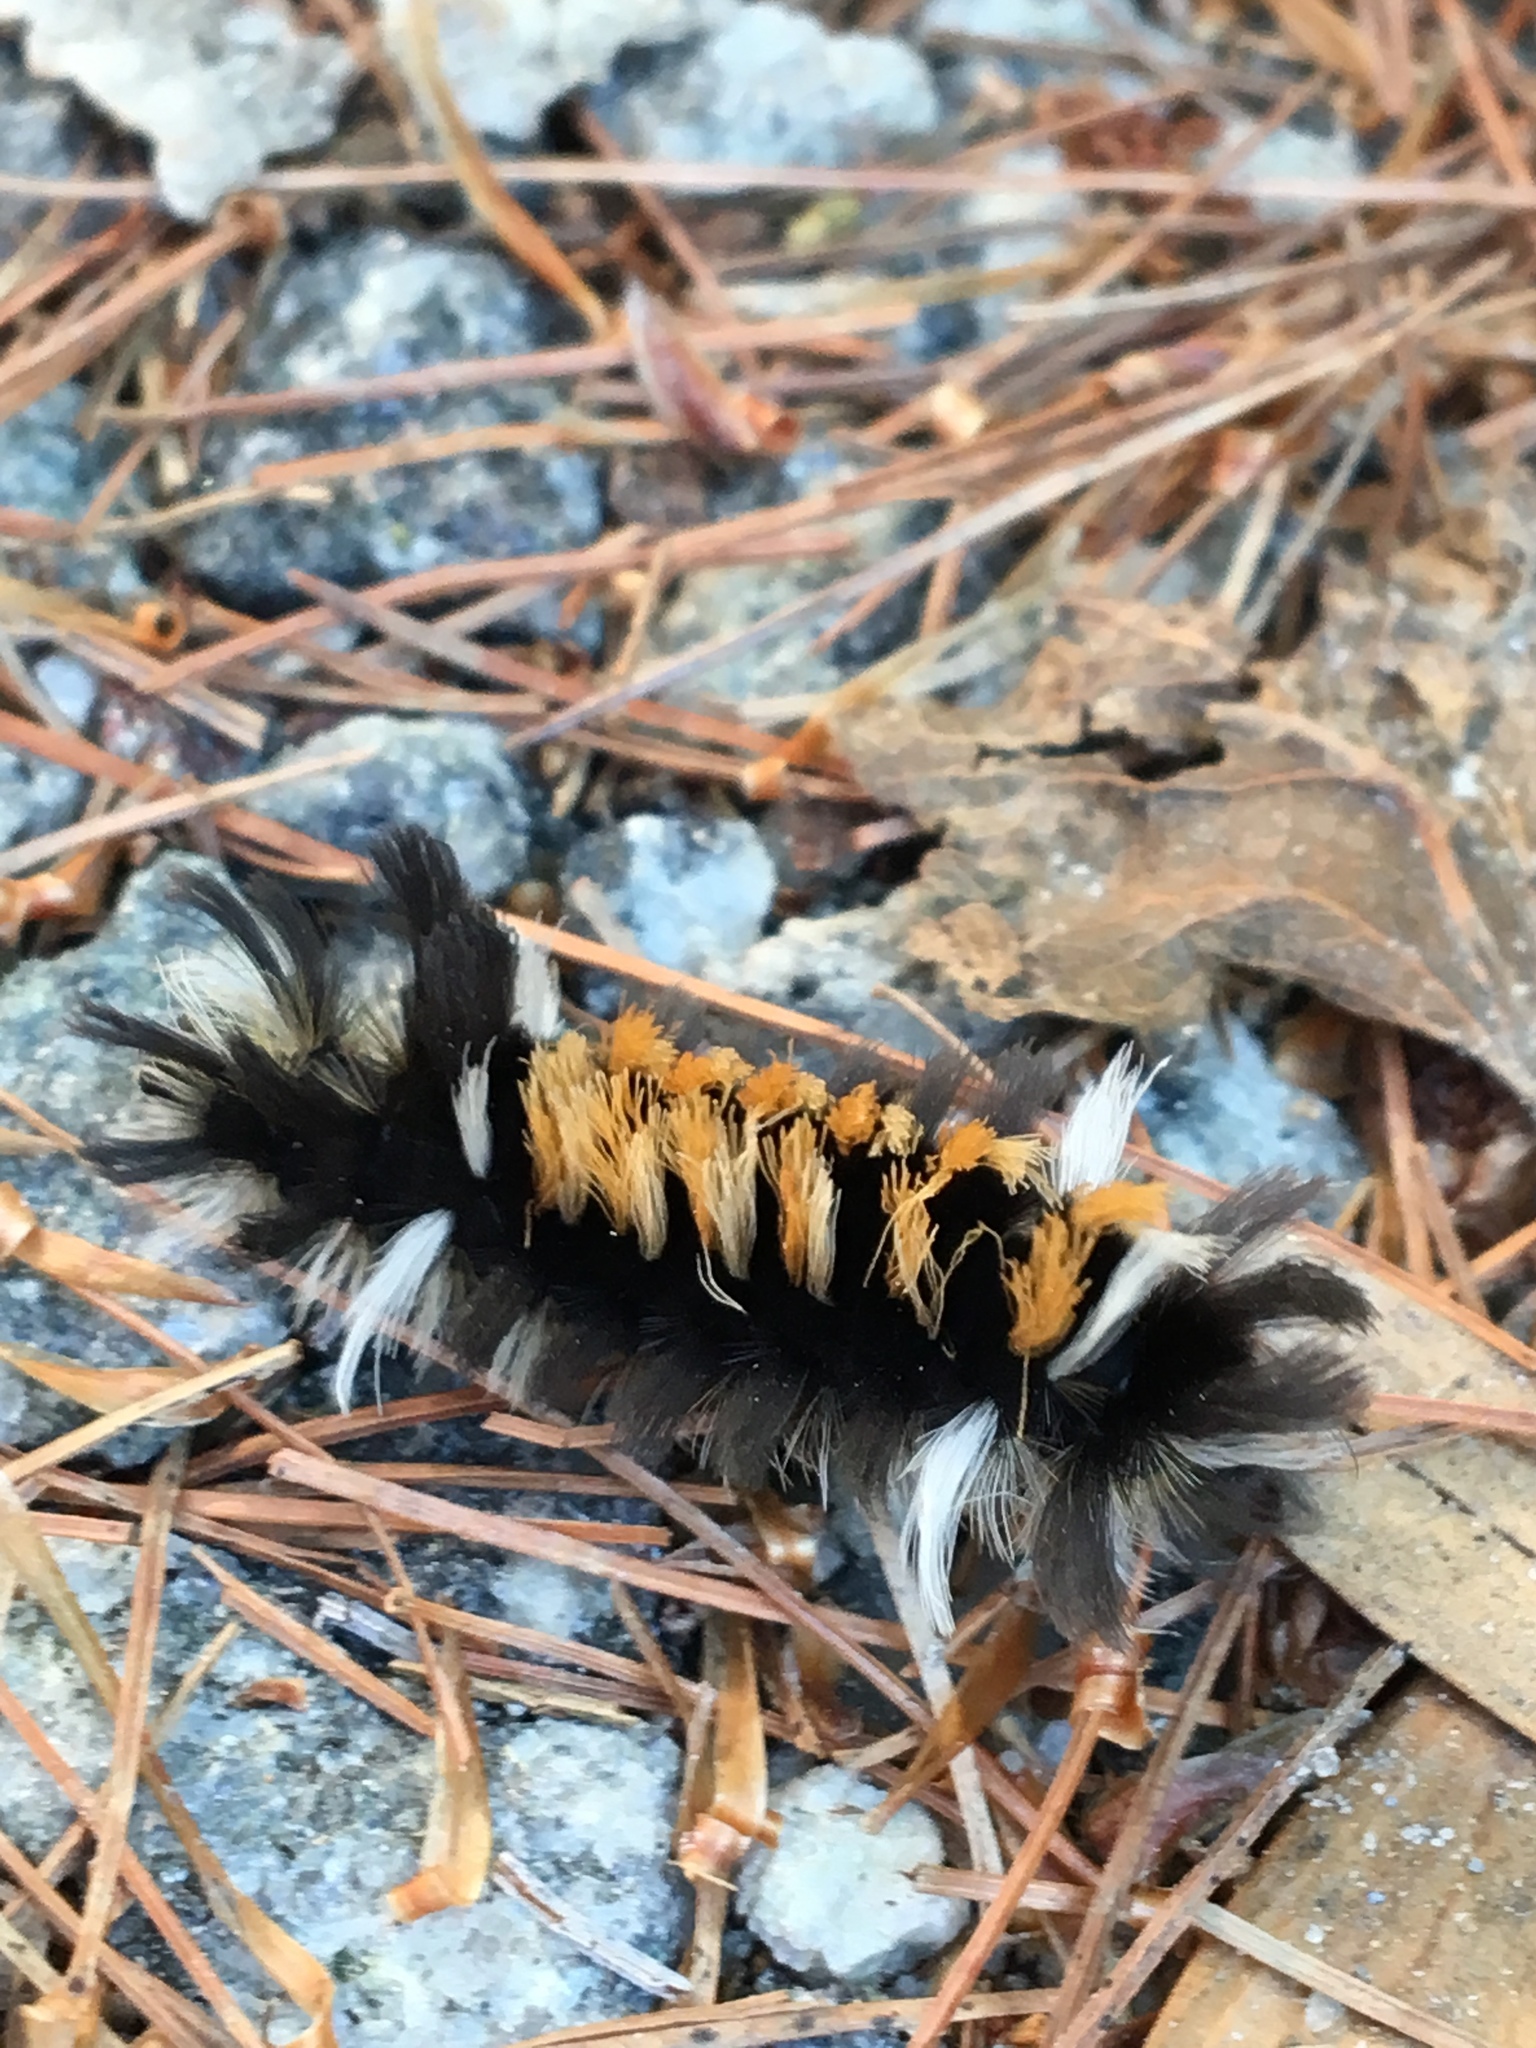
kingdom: Animalia
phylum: Arthropoda
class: Insecta
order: Lepidoptera
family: Erebidae
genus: Euchaetes
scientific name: Euchaetes egle
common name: Milkweed tussock moth
